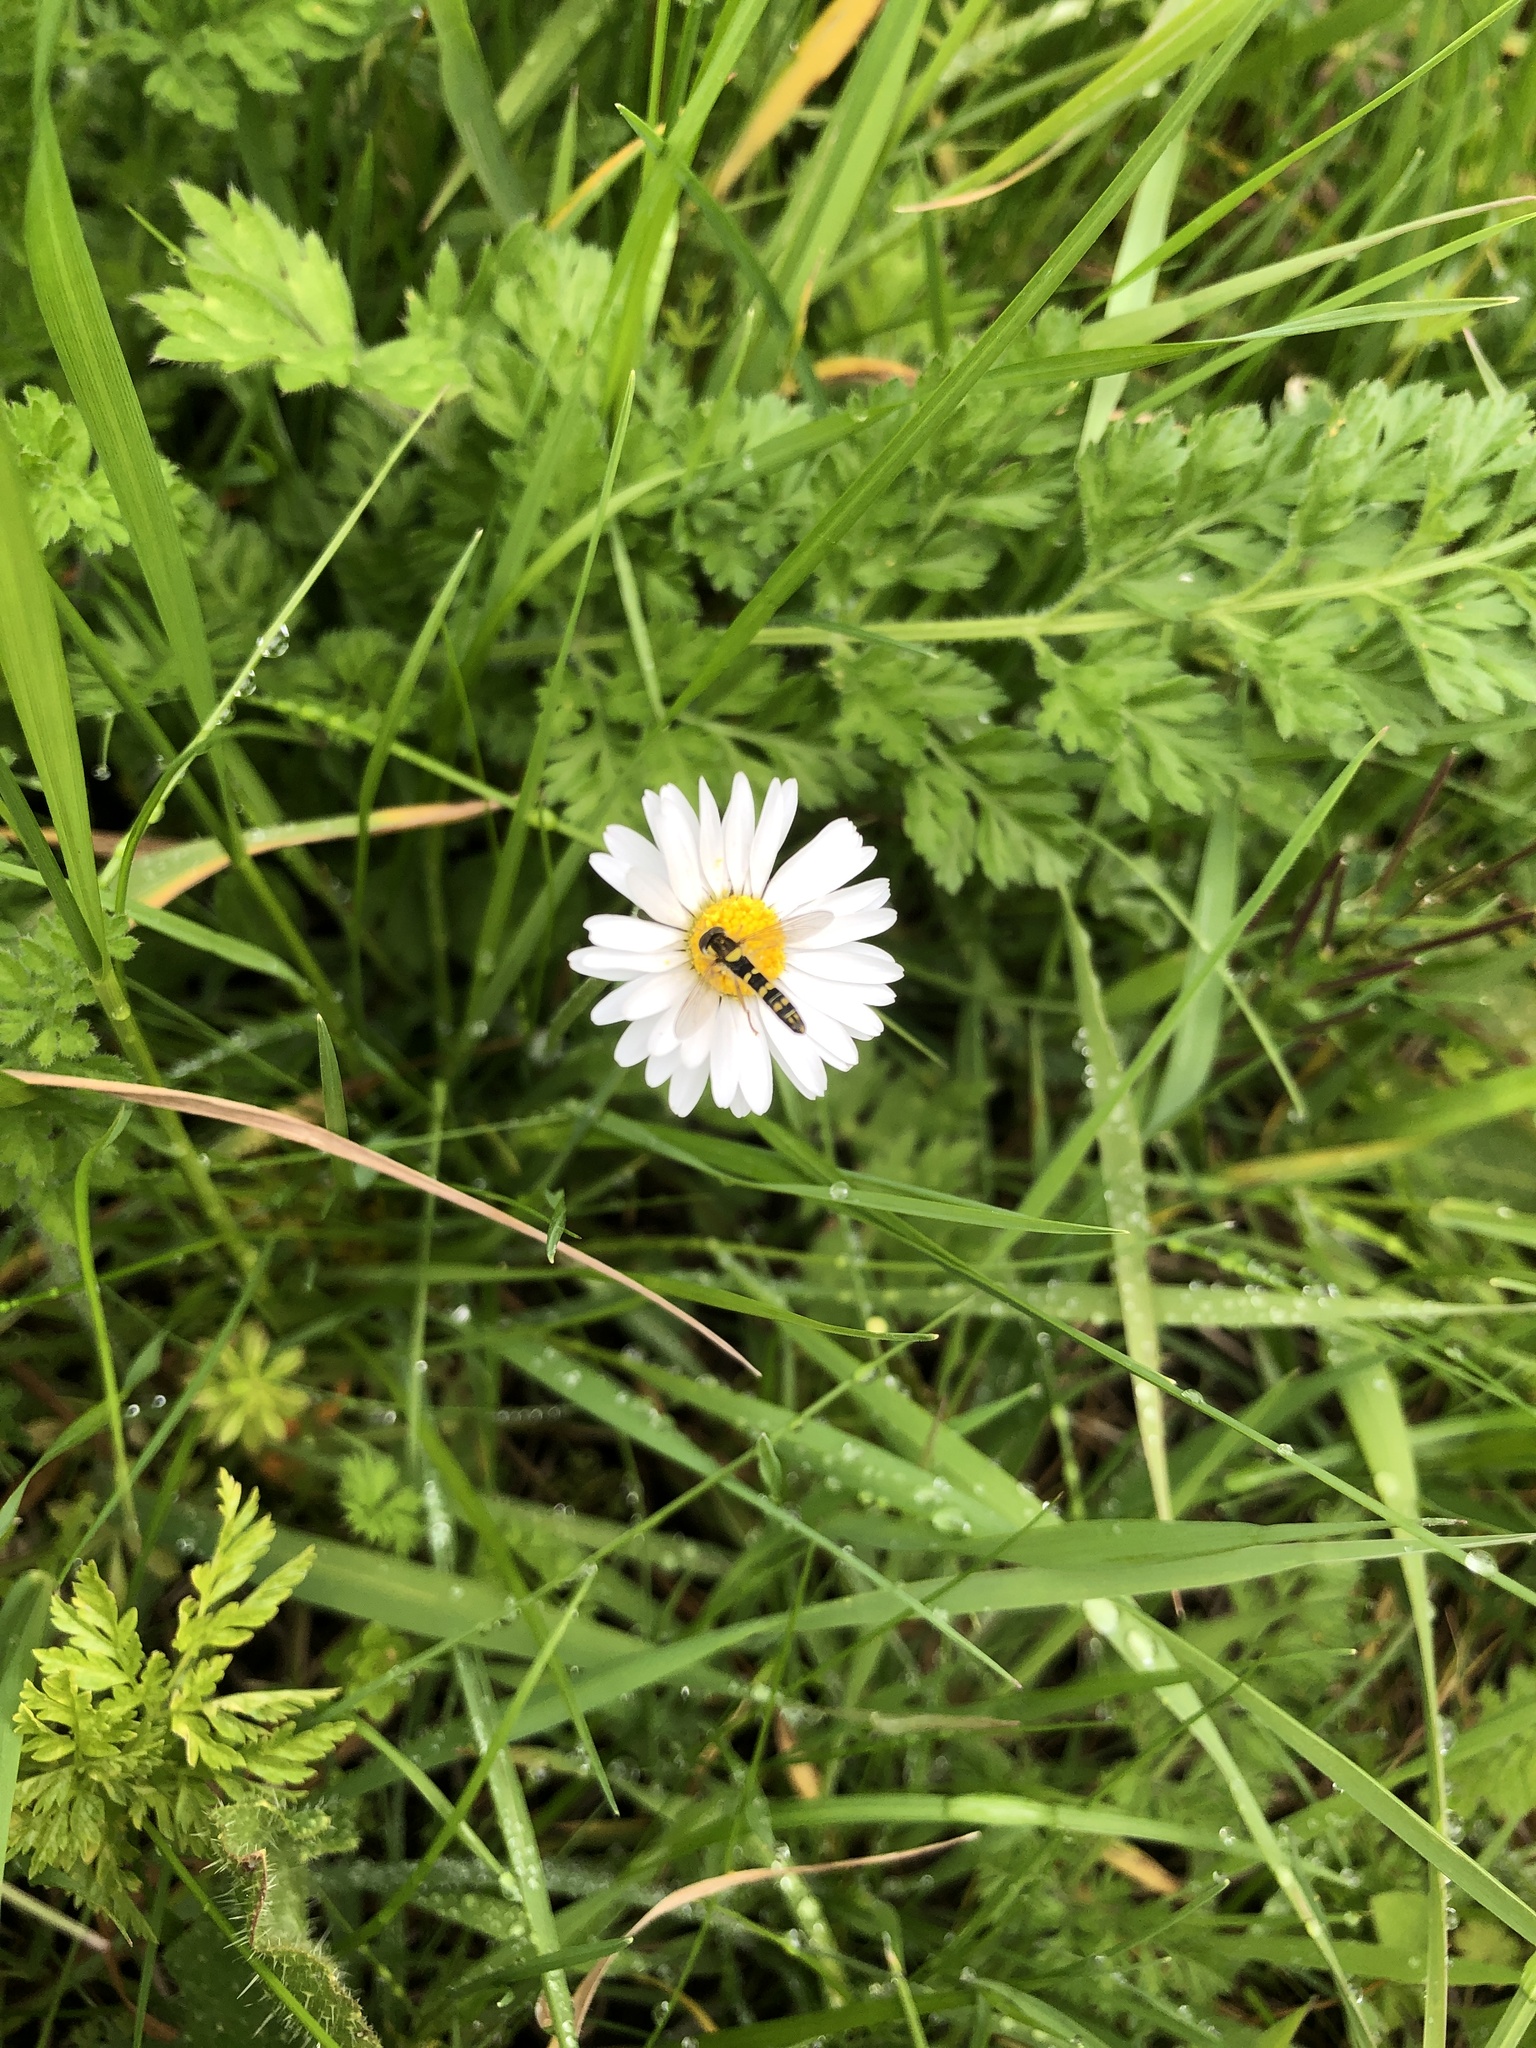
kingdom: Animalia
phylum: Arthropoda
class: Insecta
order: Diptera
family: Syrphidae
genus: Sphaerophoria
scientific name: Sphaerophoria scripta
